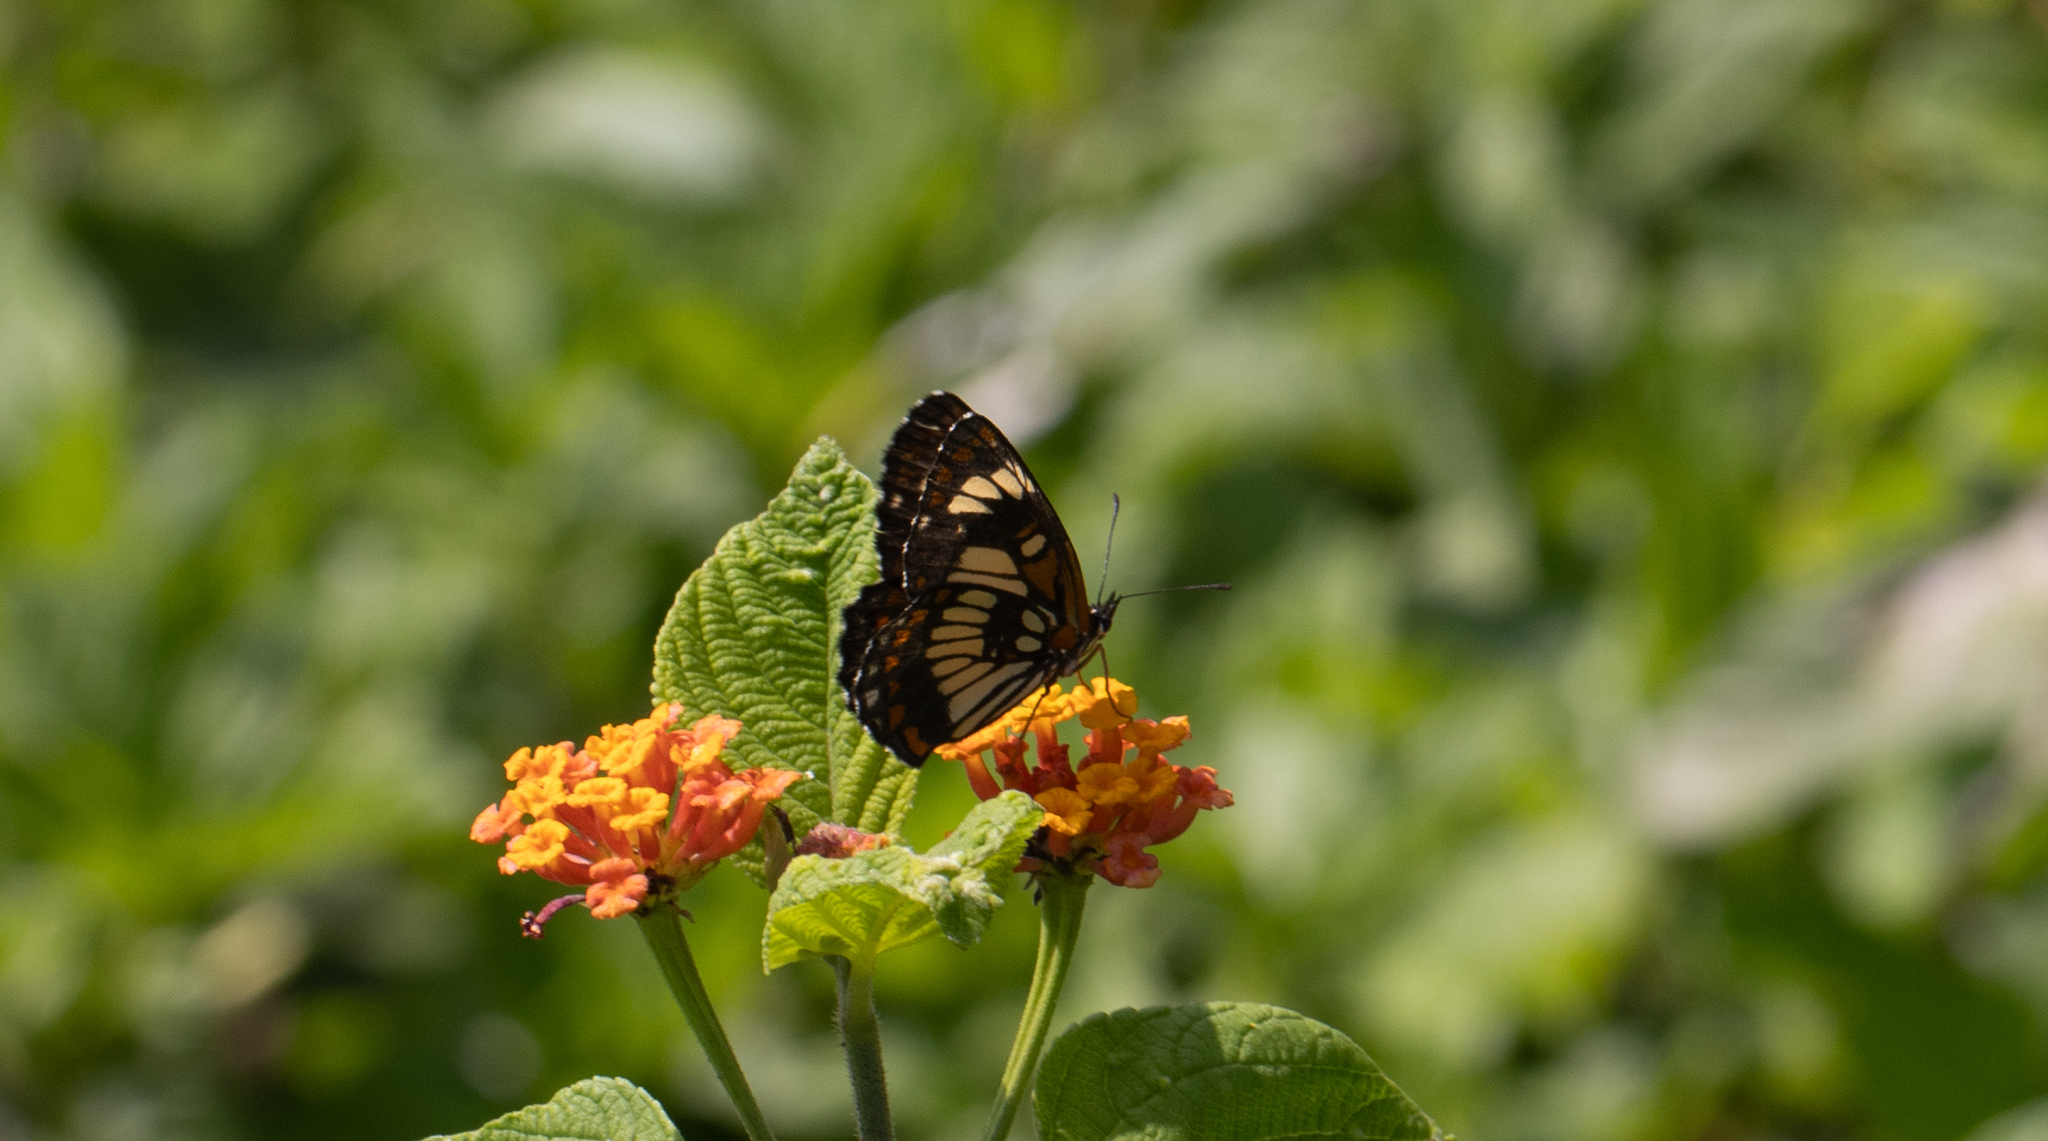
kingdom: Animalia
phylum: Arthropoda
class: Insecta
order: Lepidoptera
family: Nymphalidae
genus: Chlosyne
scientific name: Chlosyne ezra
